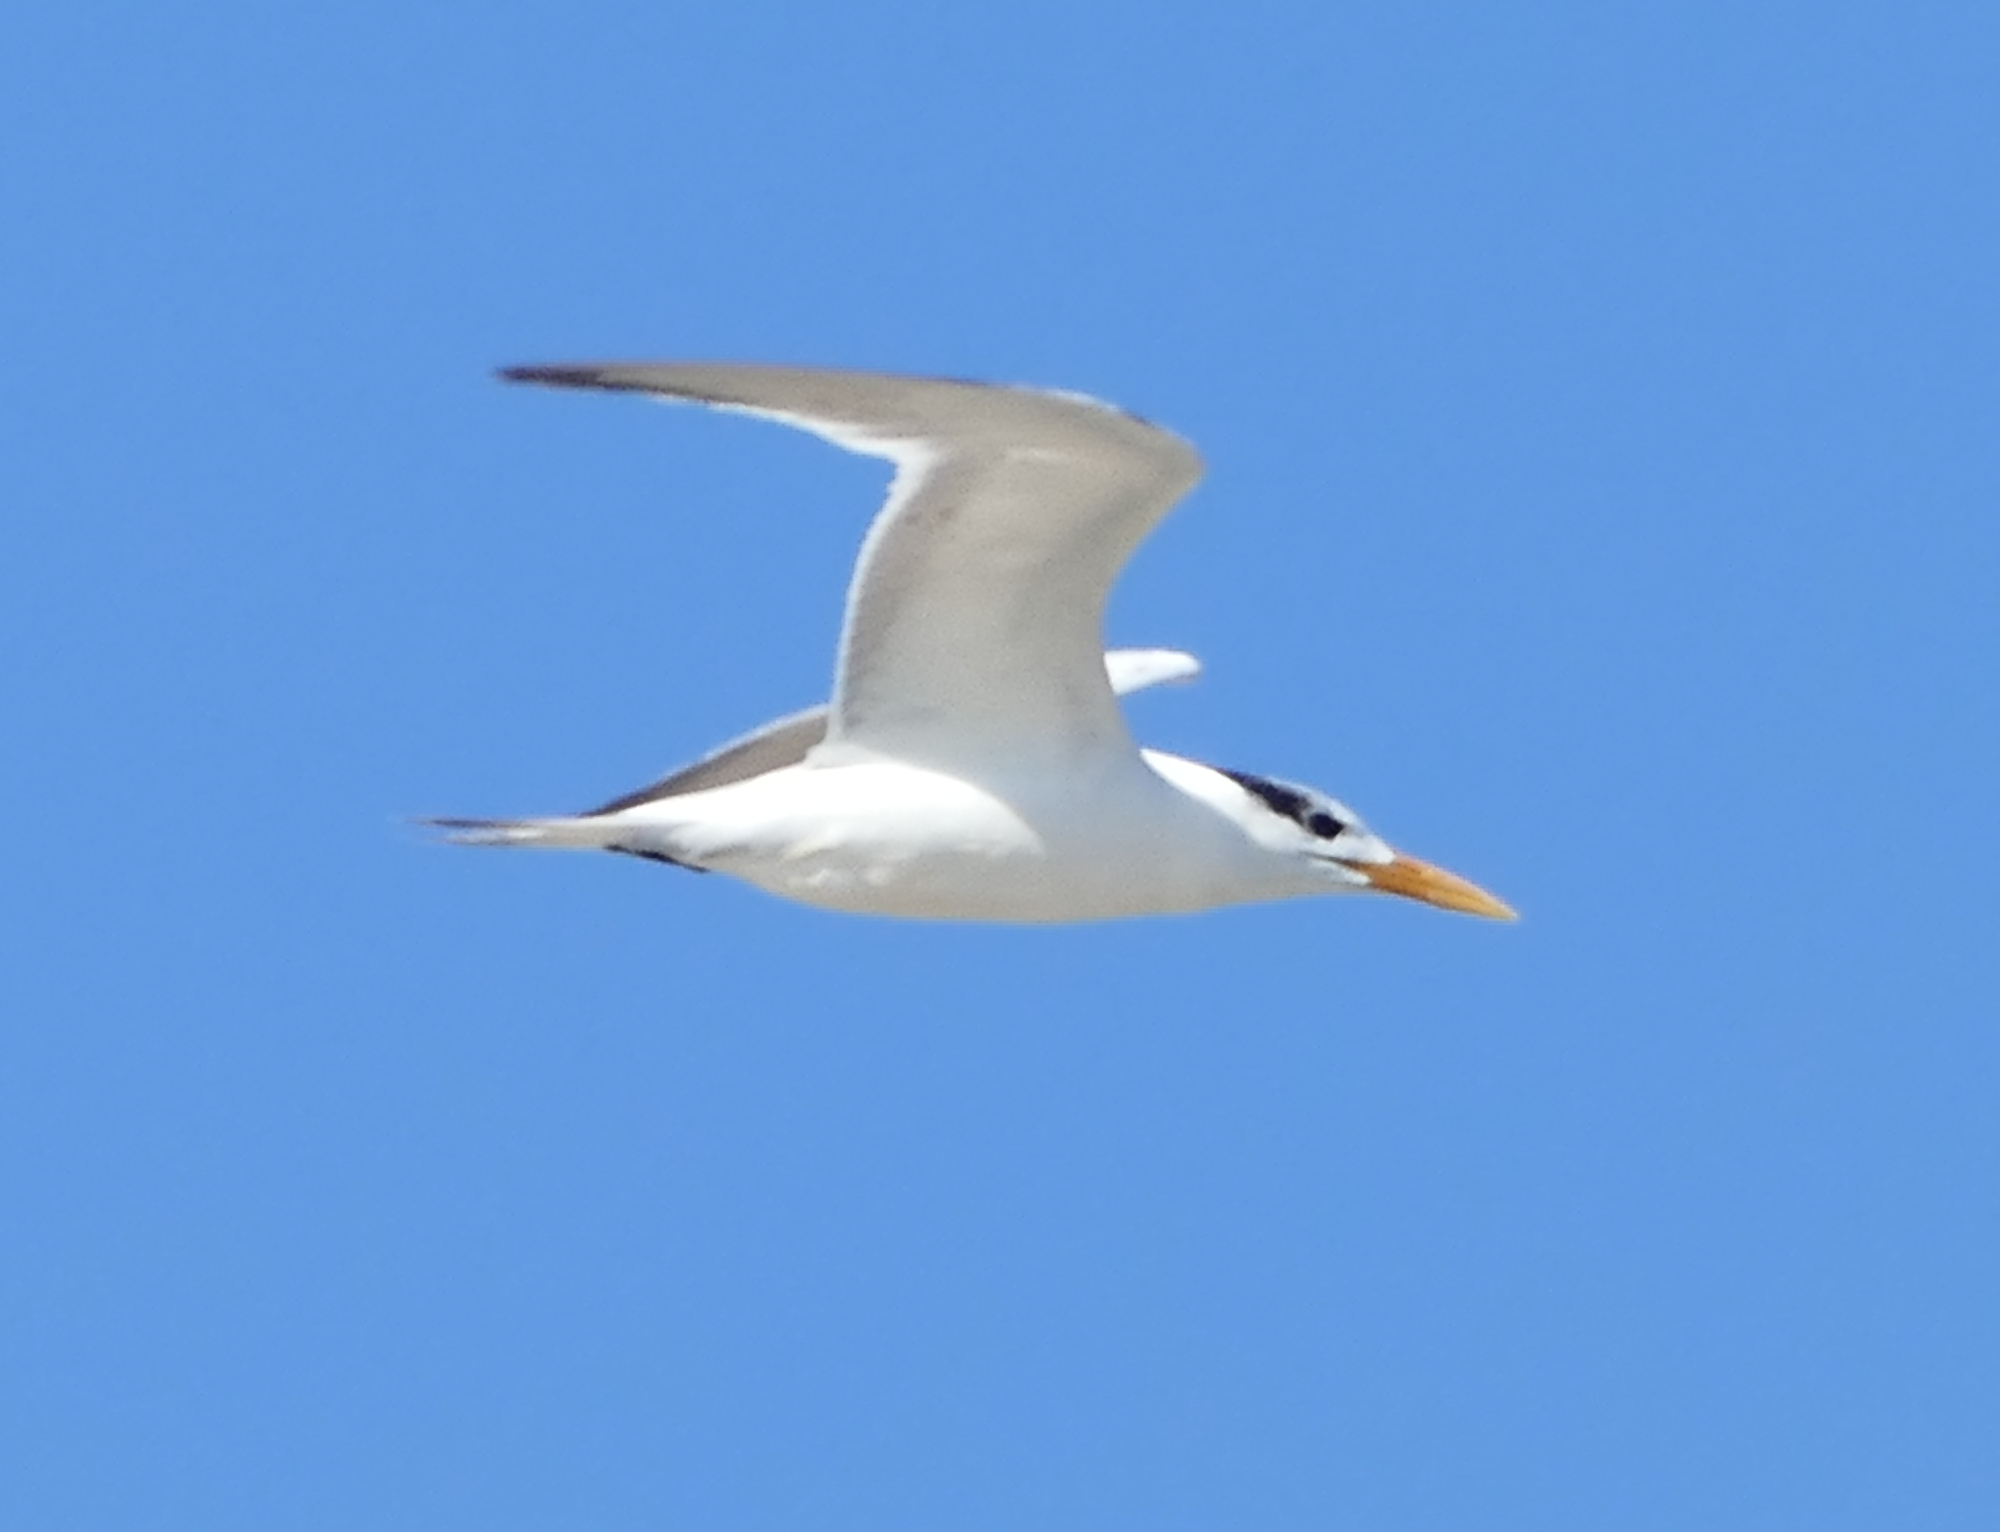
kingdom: Animalia
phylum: Chordata
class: Aves
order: Charadriiformes
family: Laridae
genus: Thalasseus
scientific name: Thalasseus maximus
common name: Royal tern
